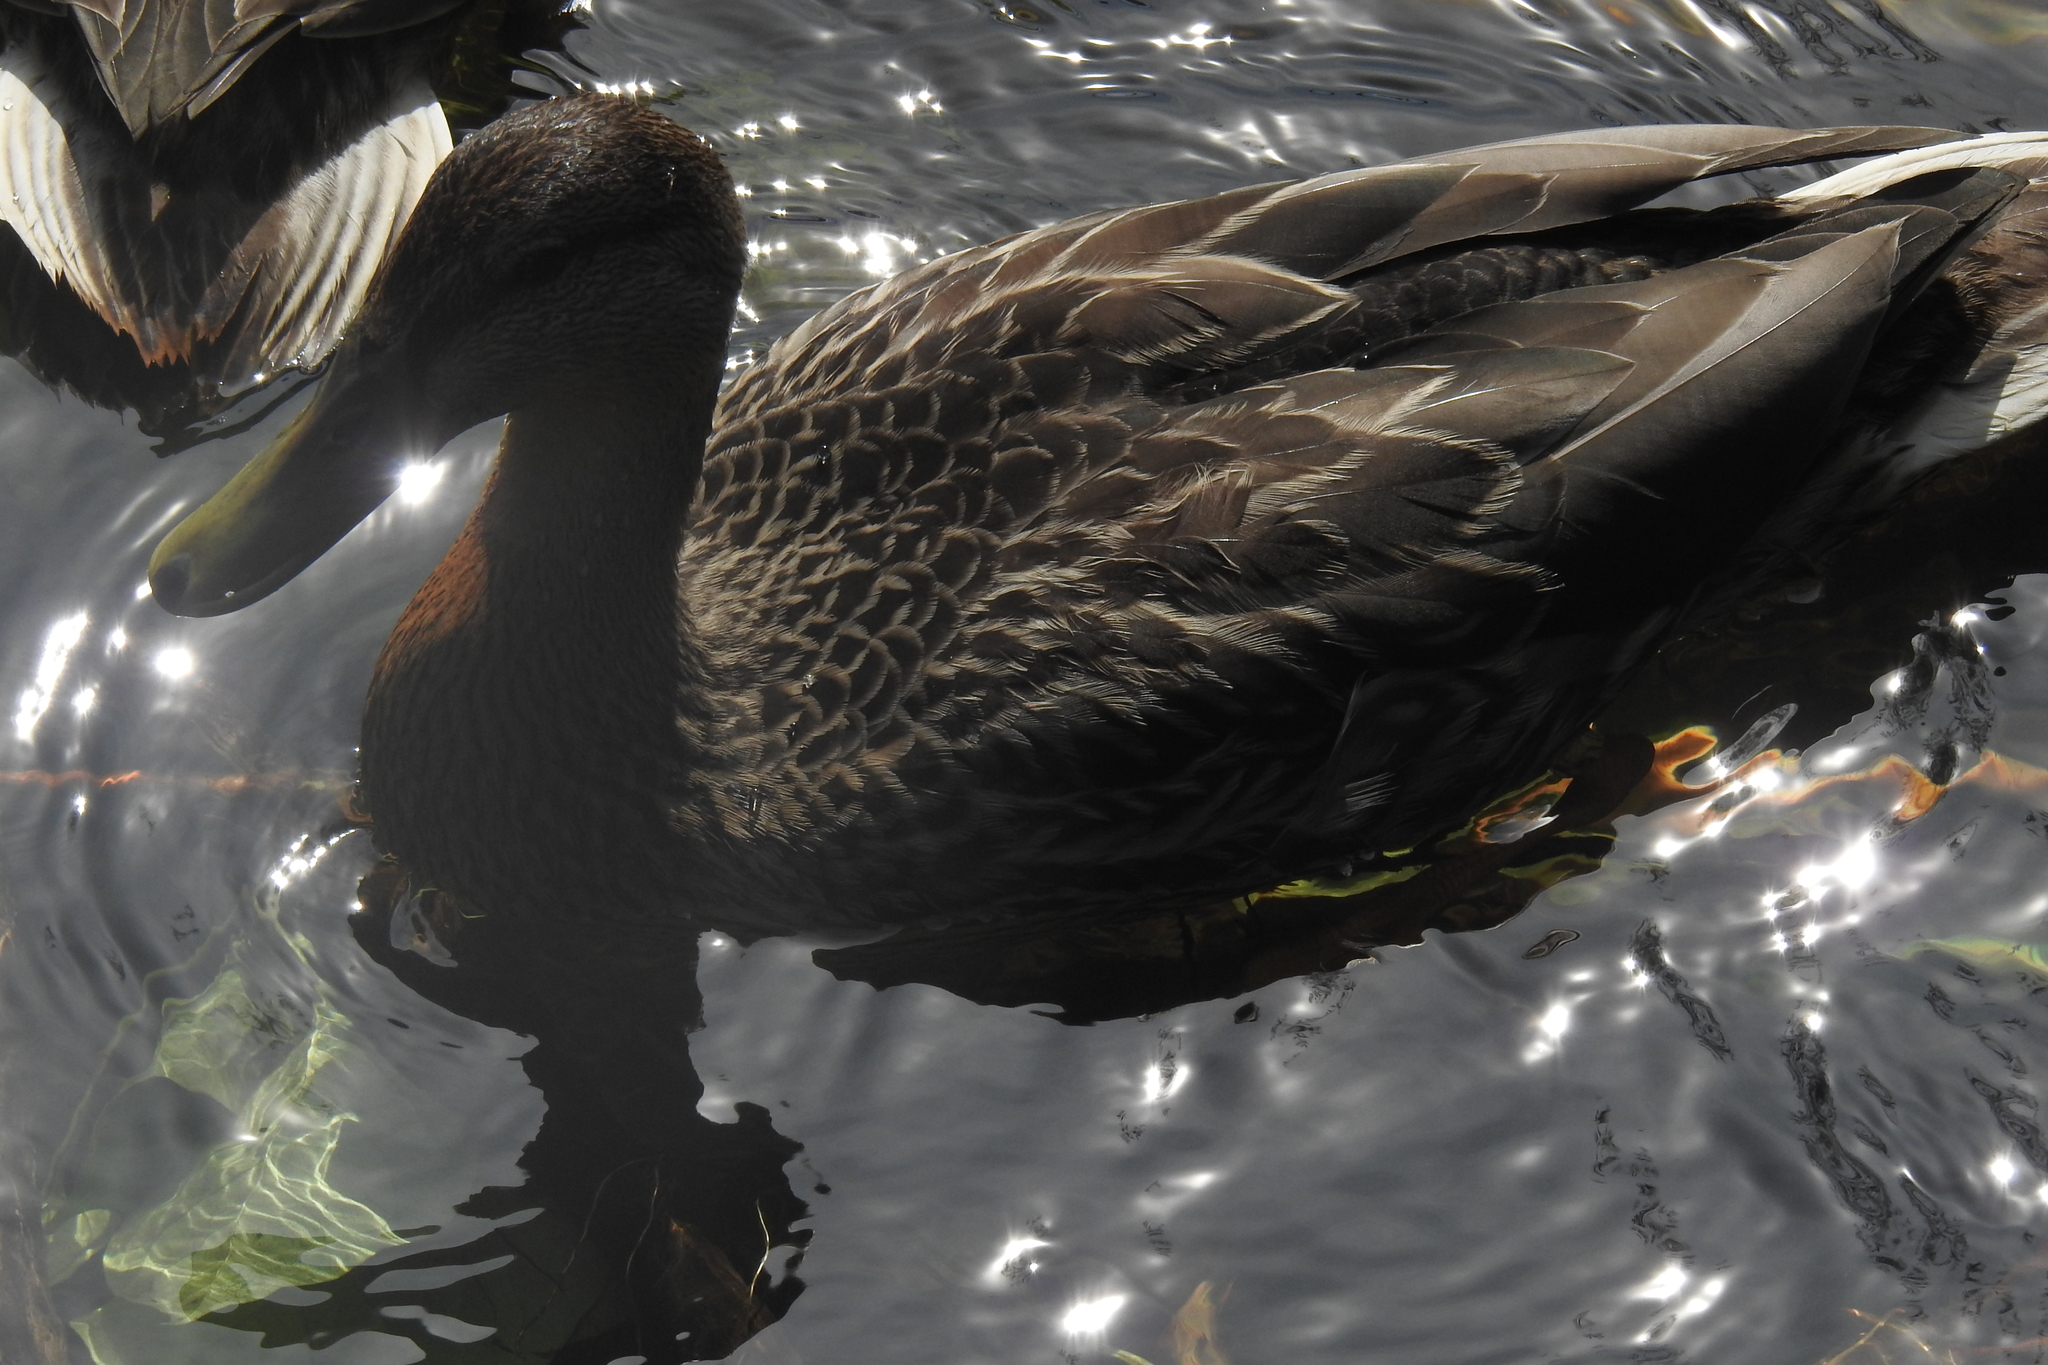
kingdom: Animalia
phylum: Chordata
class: Aves
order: Anseriformes
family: Anatidae
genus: Anas
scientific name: Anas platyrhynchos
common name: Mallard
